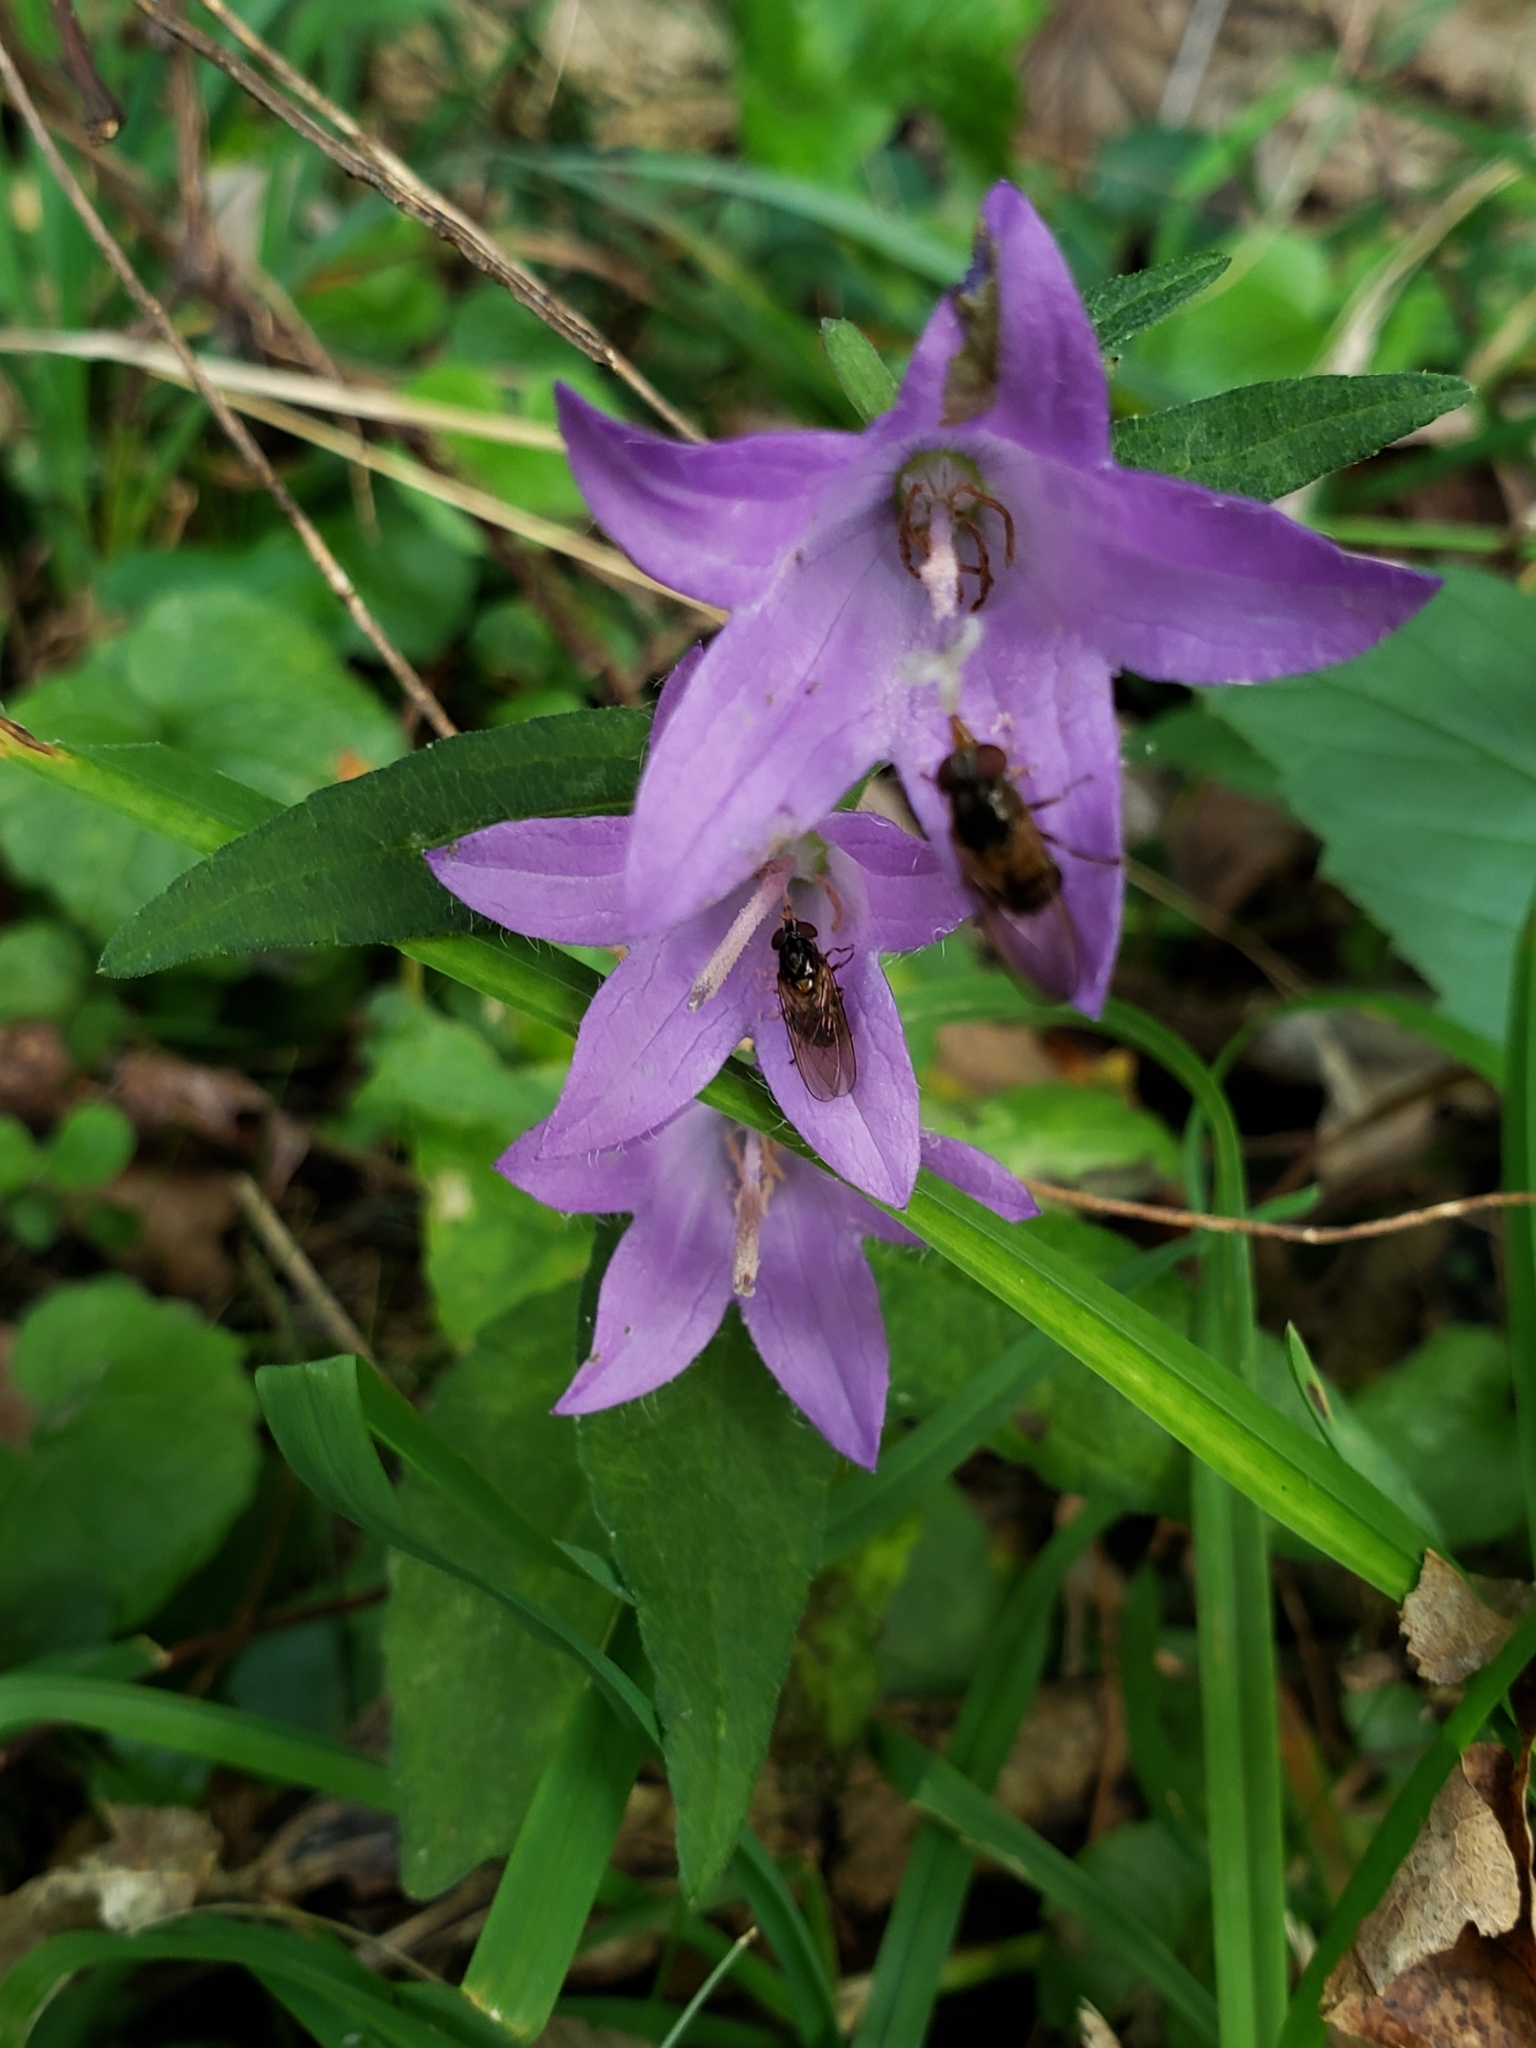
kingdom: Plantae
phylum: Tracheophyta
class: Magnoliopsida
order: Asterales
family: Campanulaceae
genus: Campanula
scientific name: Campanula rapunculoides
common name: Creeping bellflower
